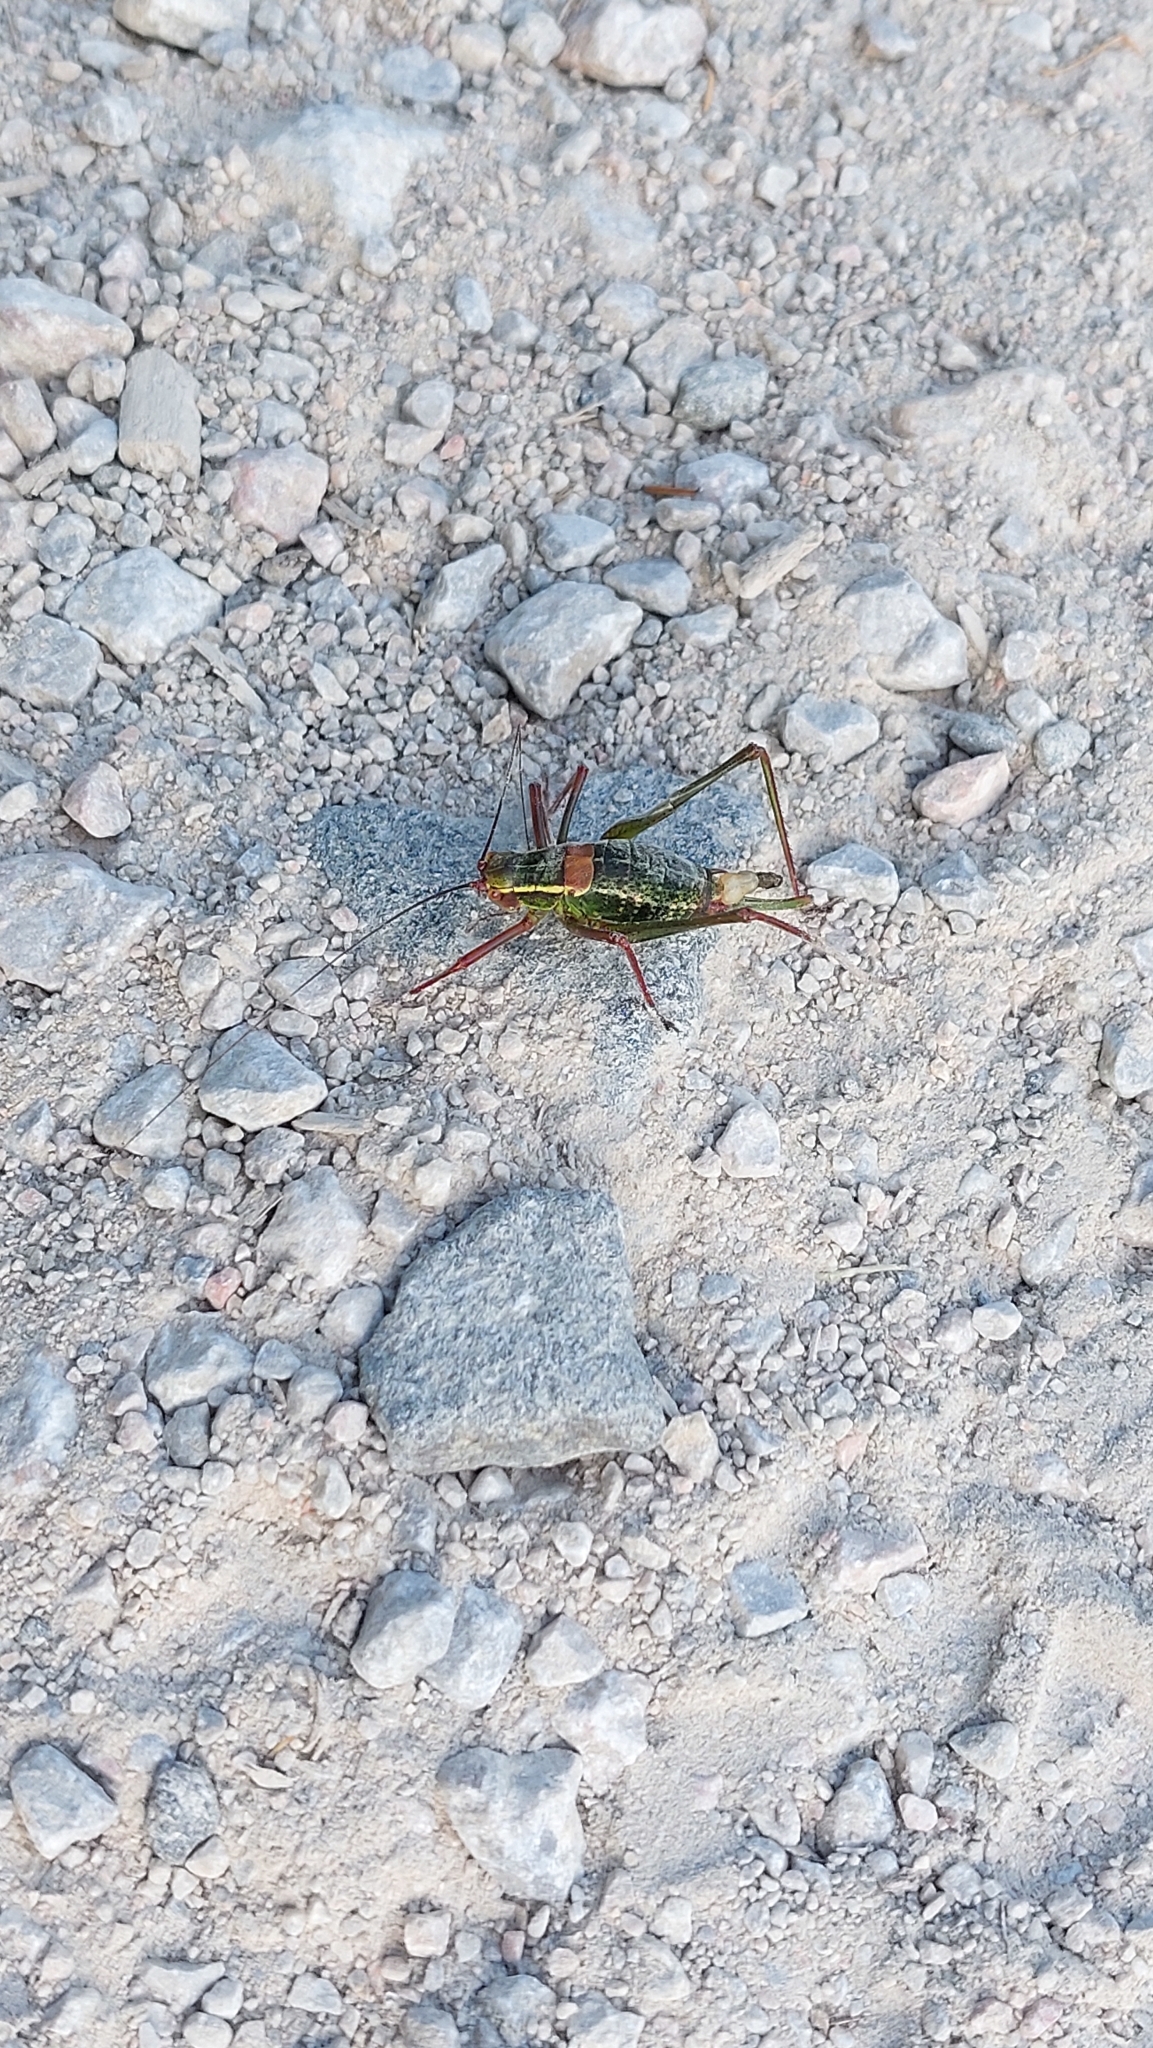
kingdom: Animalia
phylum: Arthropoda
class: Insecta
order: Orthoptera
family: Tettigoniidae
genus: Barbitistes
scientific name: Barbitistes serricauda
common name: Saw-tailed bush-cricket
